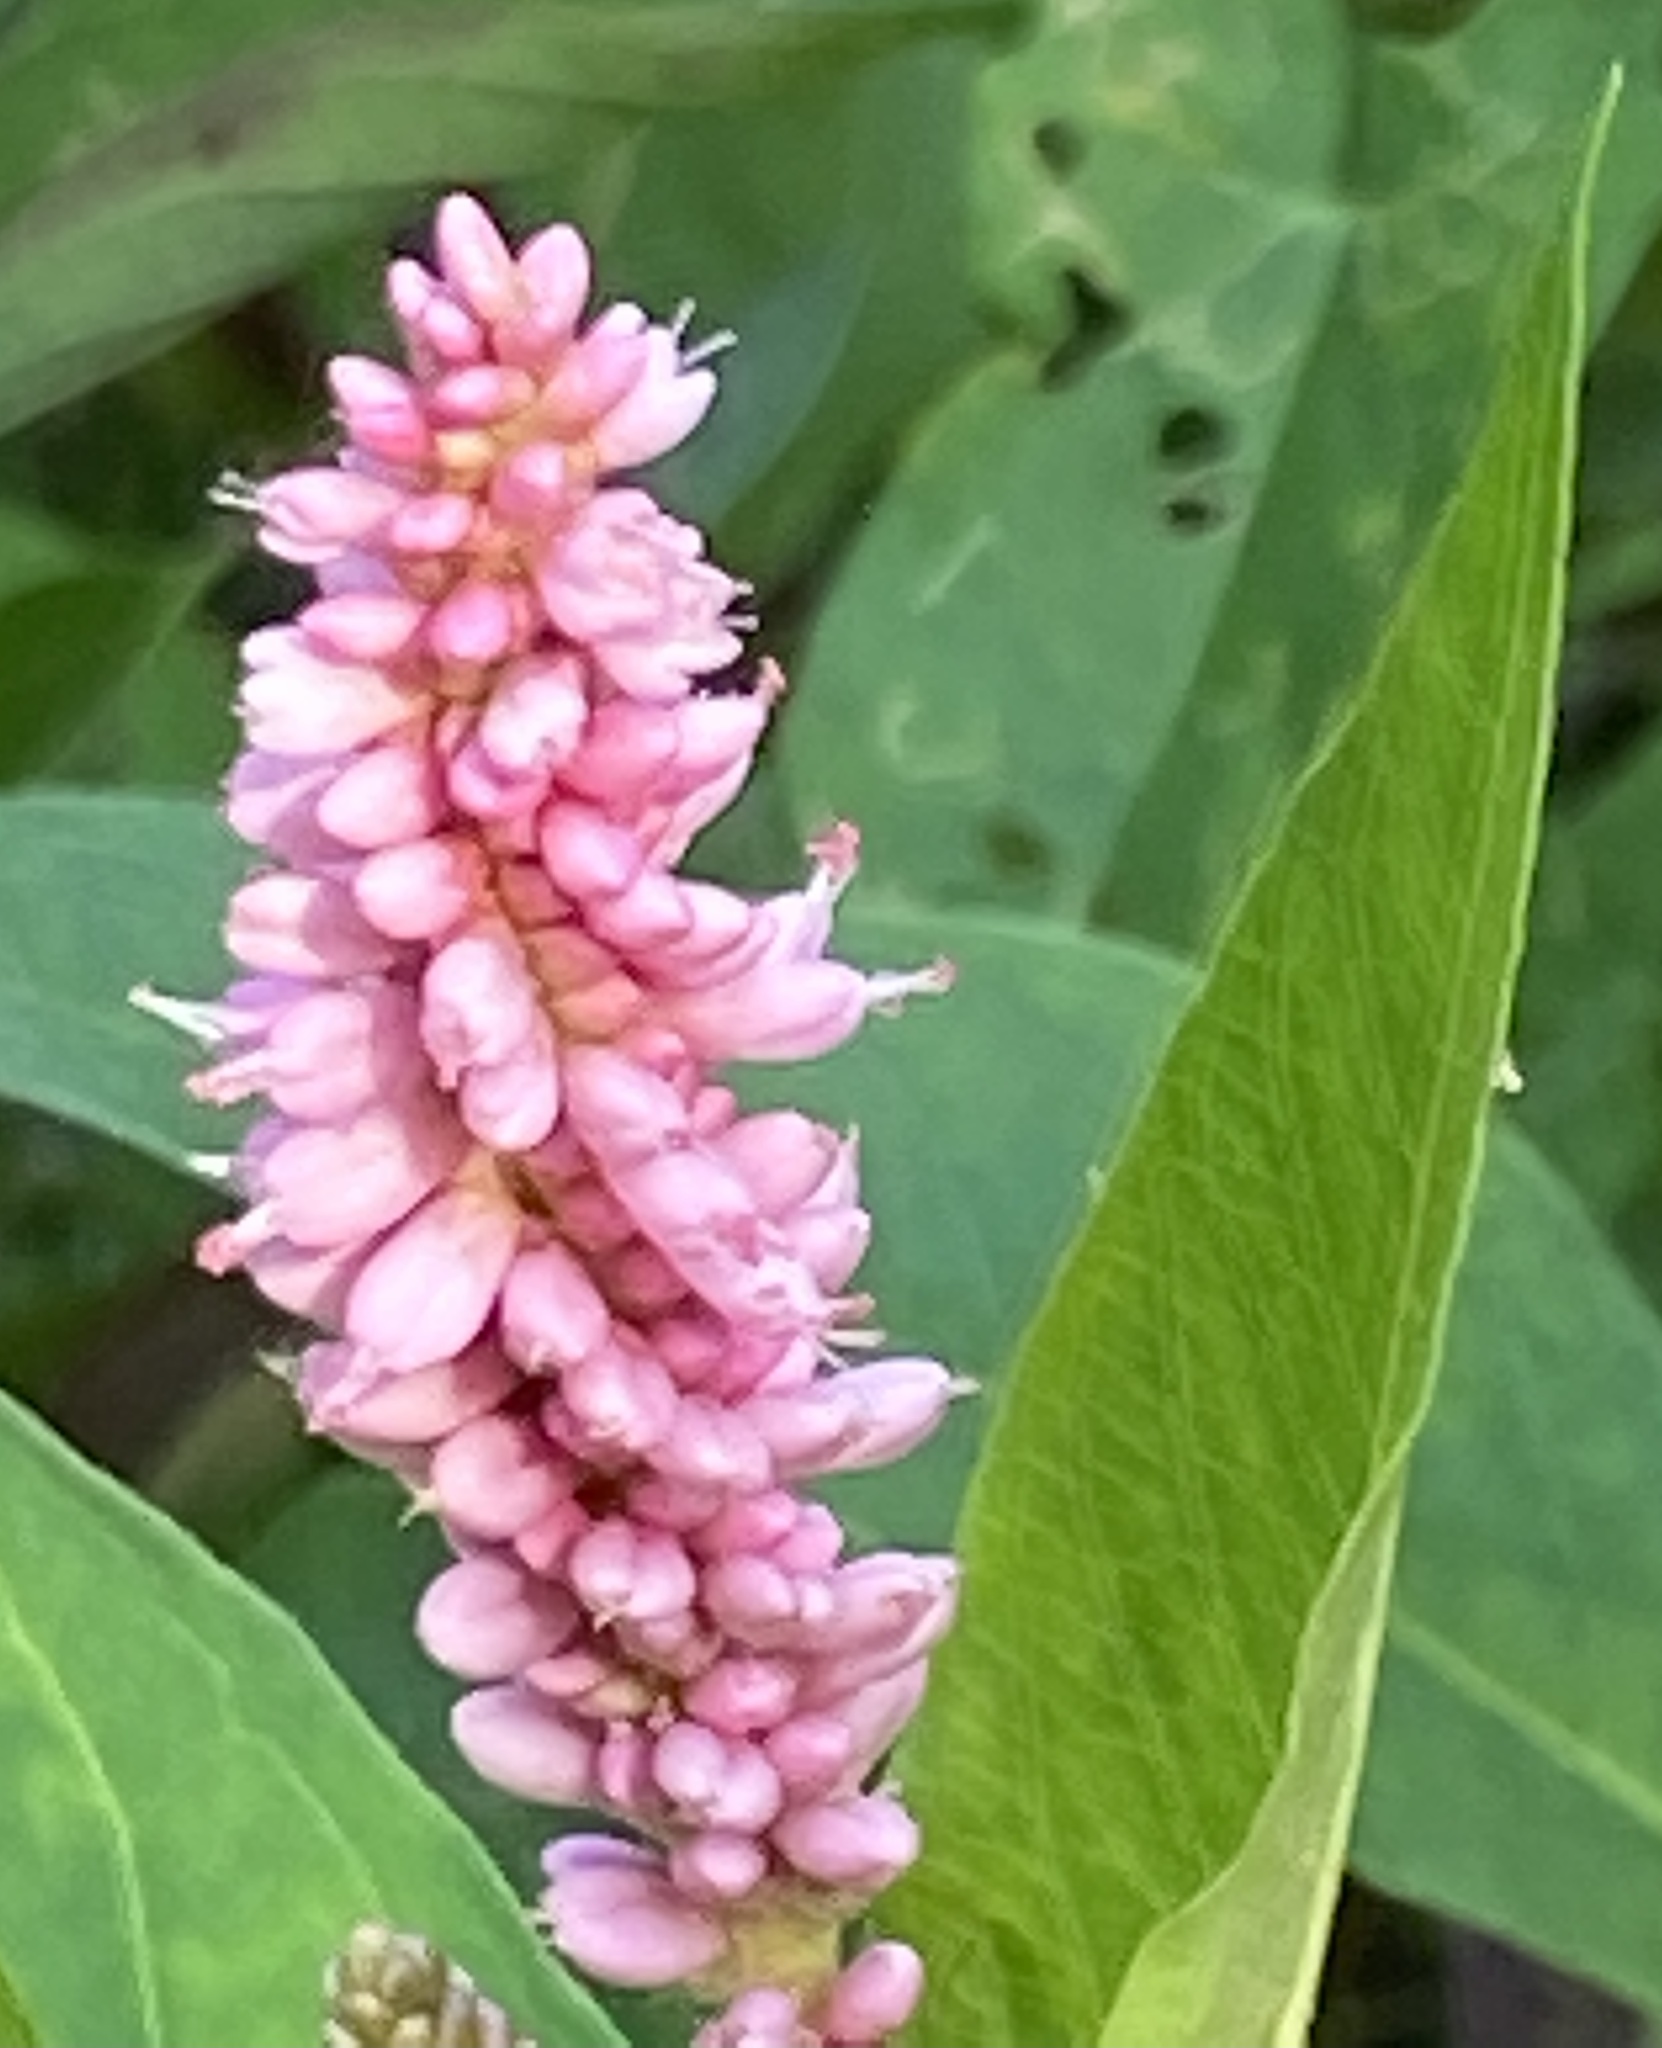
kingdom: Plantae
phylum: Tracheophyta
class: Magnoliopsida
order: Caryophyllales
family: Polygonaceae
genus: Persicaria
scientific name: Persicaria amphibia
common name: Amphibious bistort
